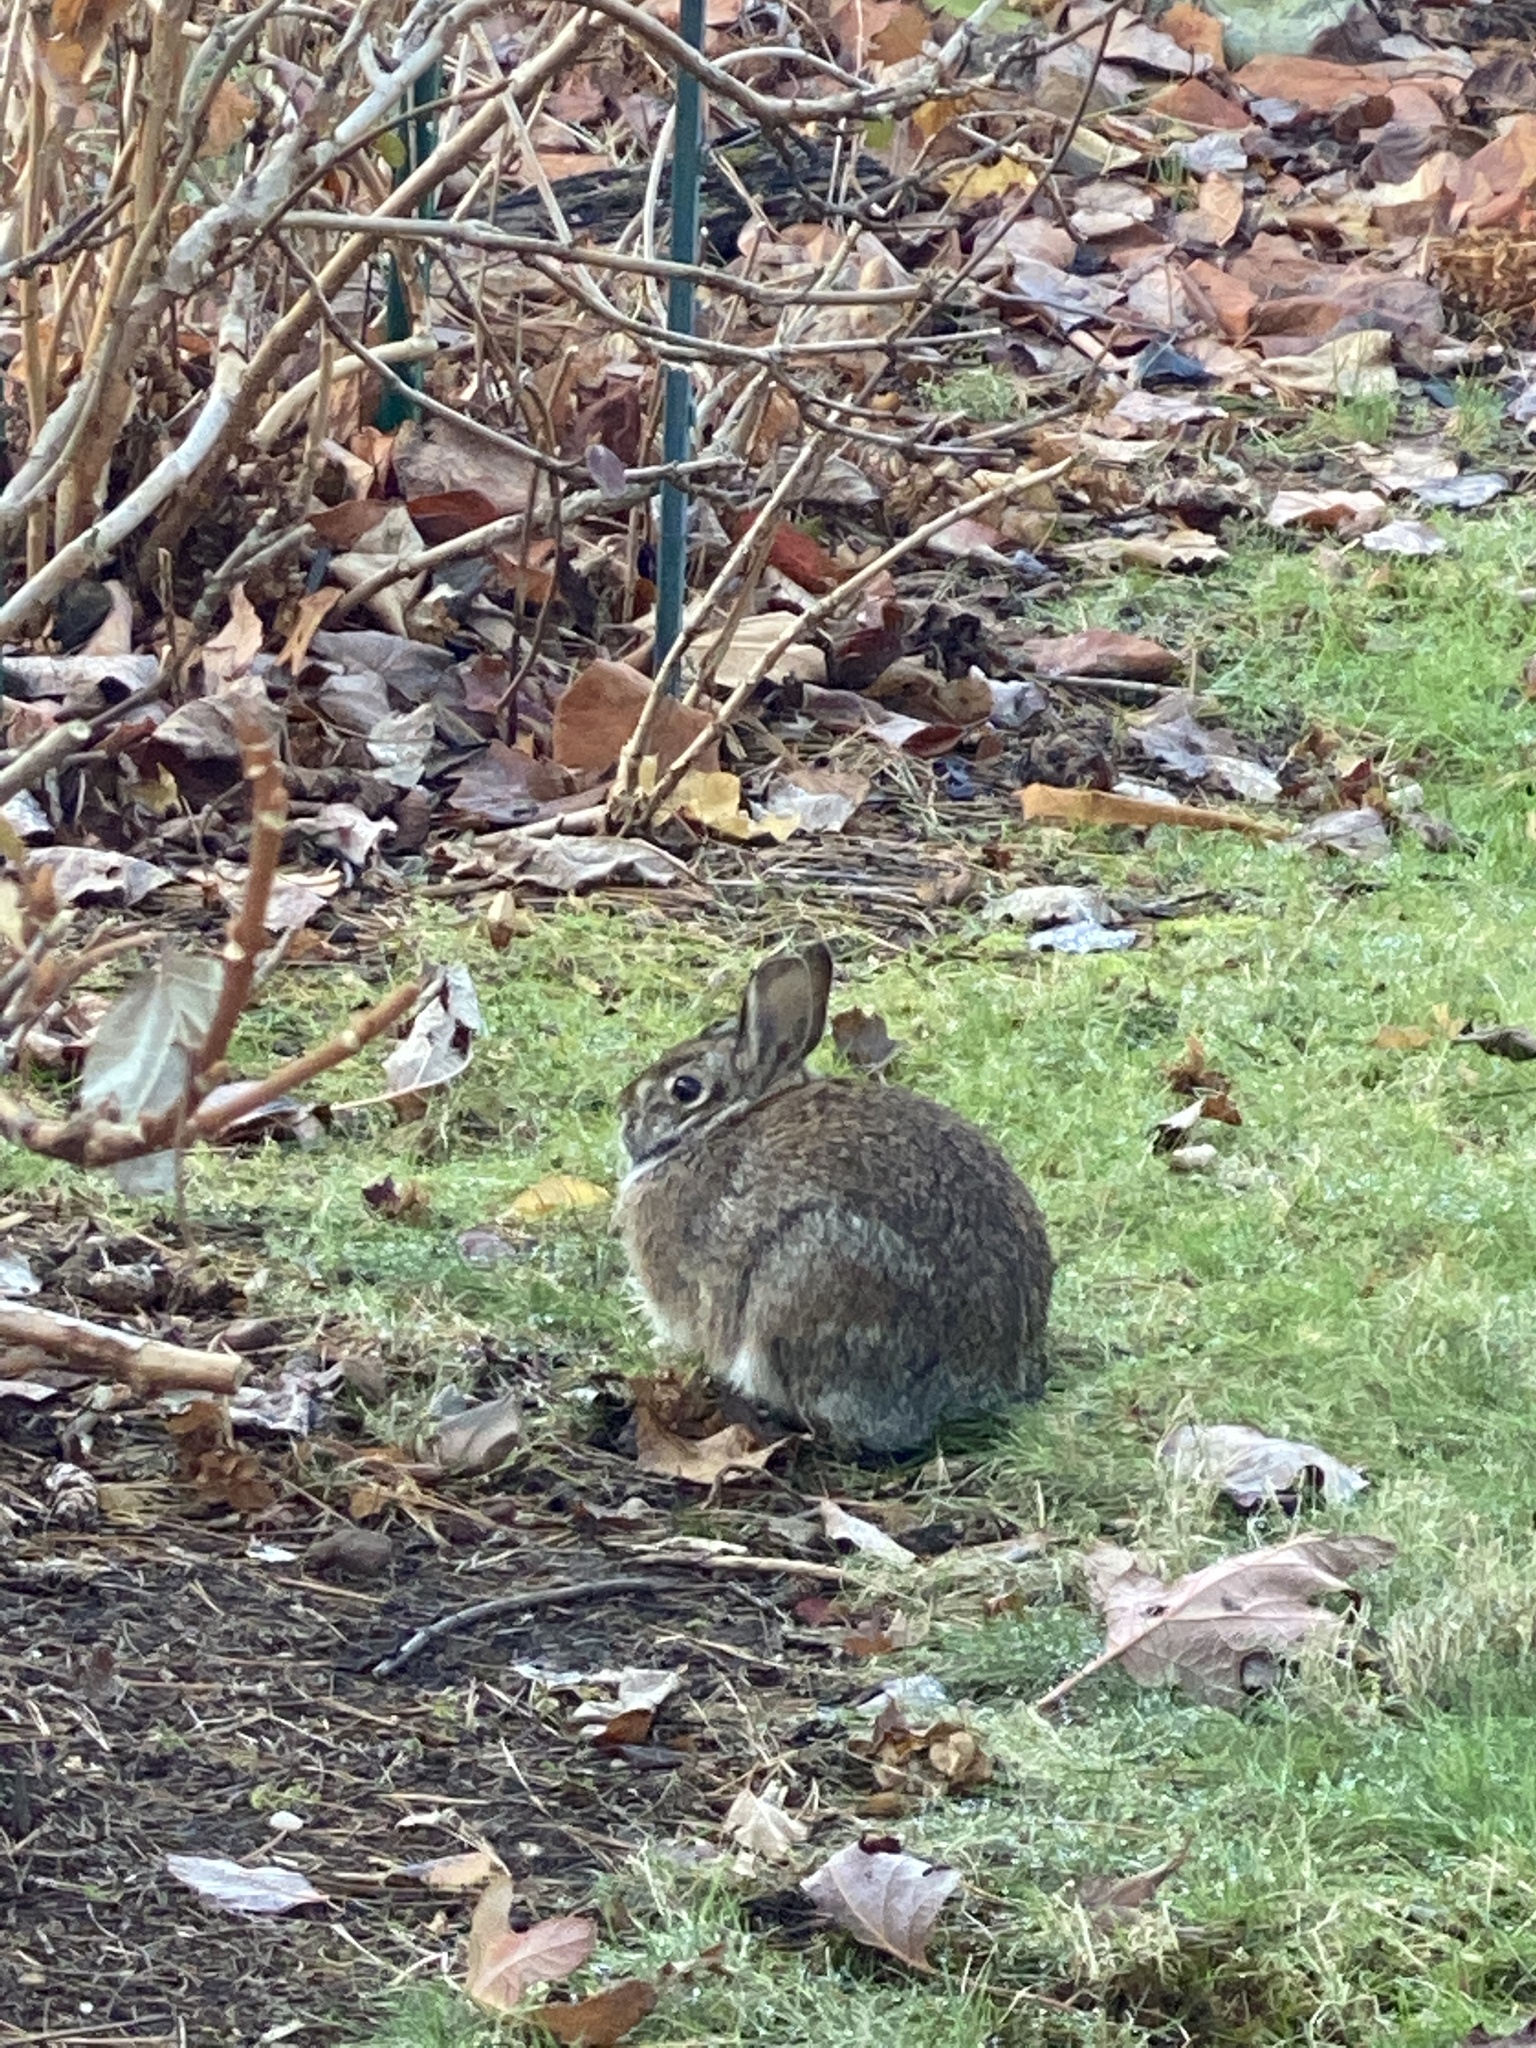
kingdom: Animalia
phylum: Chordata
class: Mammalia
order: Lagomorpha
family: Leporidae
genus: Sylvilagus
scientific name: Sylvilagus floridanus
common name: Eastern cottontail
